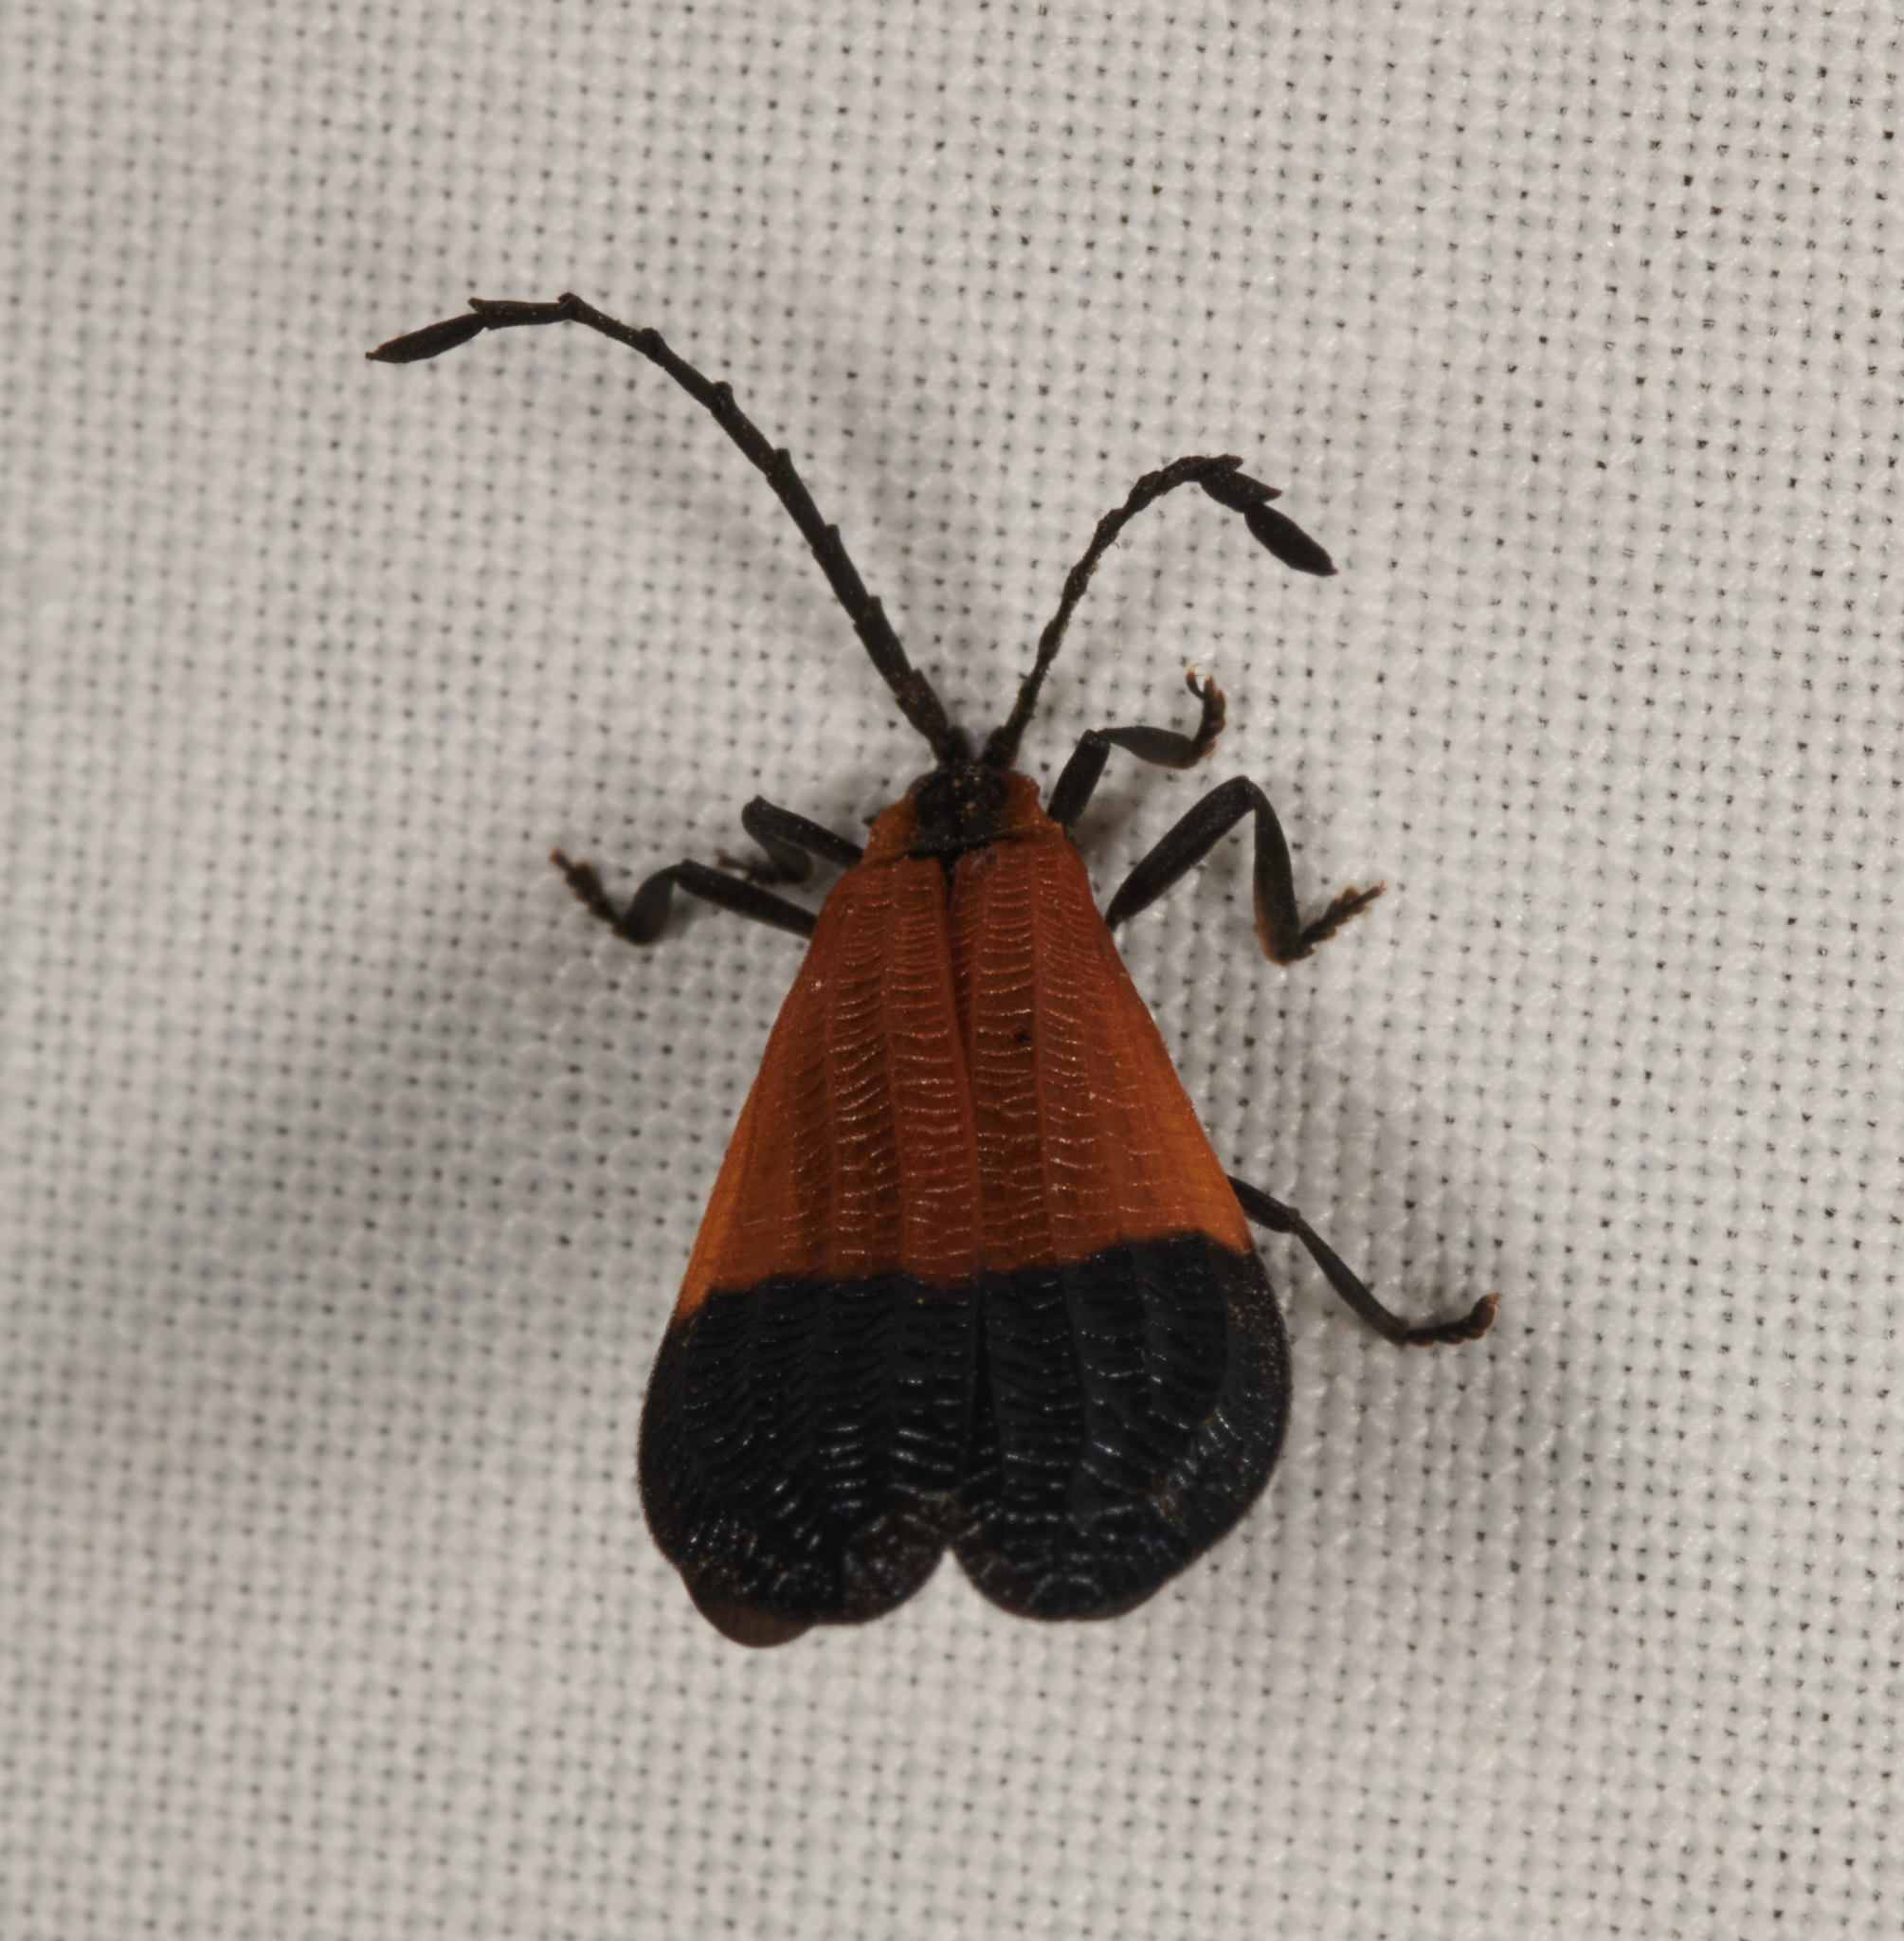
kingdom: Animalia
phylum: Arthropoda
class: Insecta
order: Coleoptera
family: Lycidae
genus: Calopteron
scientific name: Calopteron terminale
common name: End band net-winged beetle
